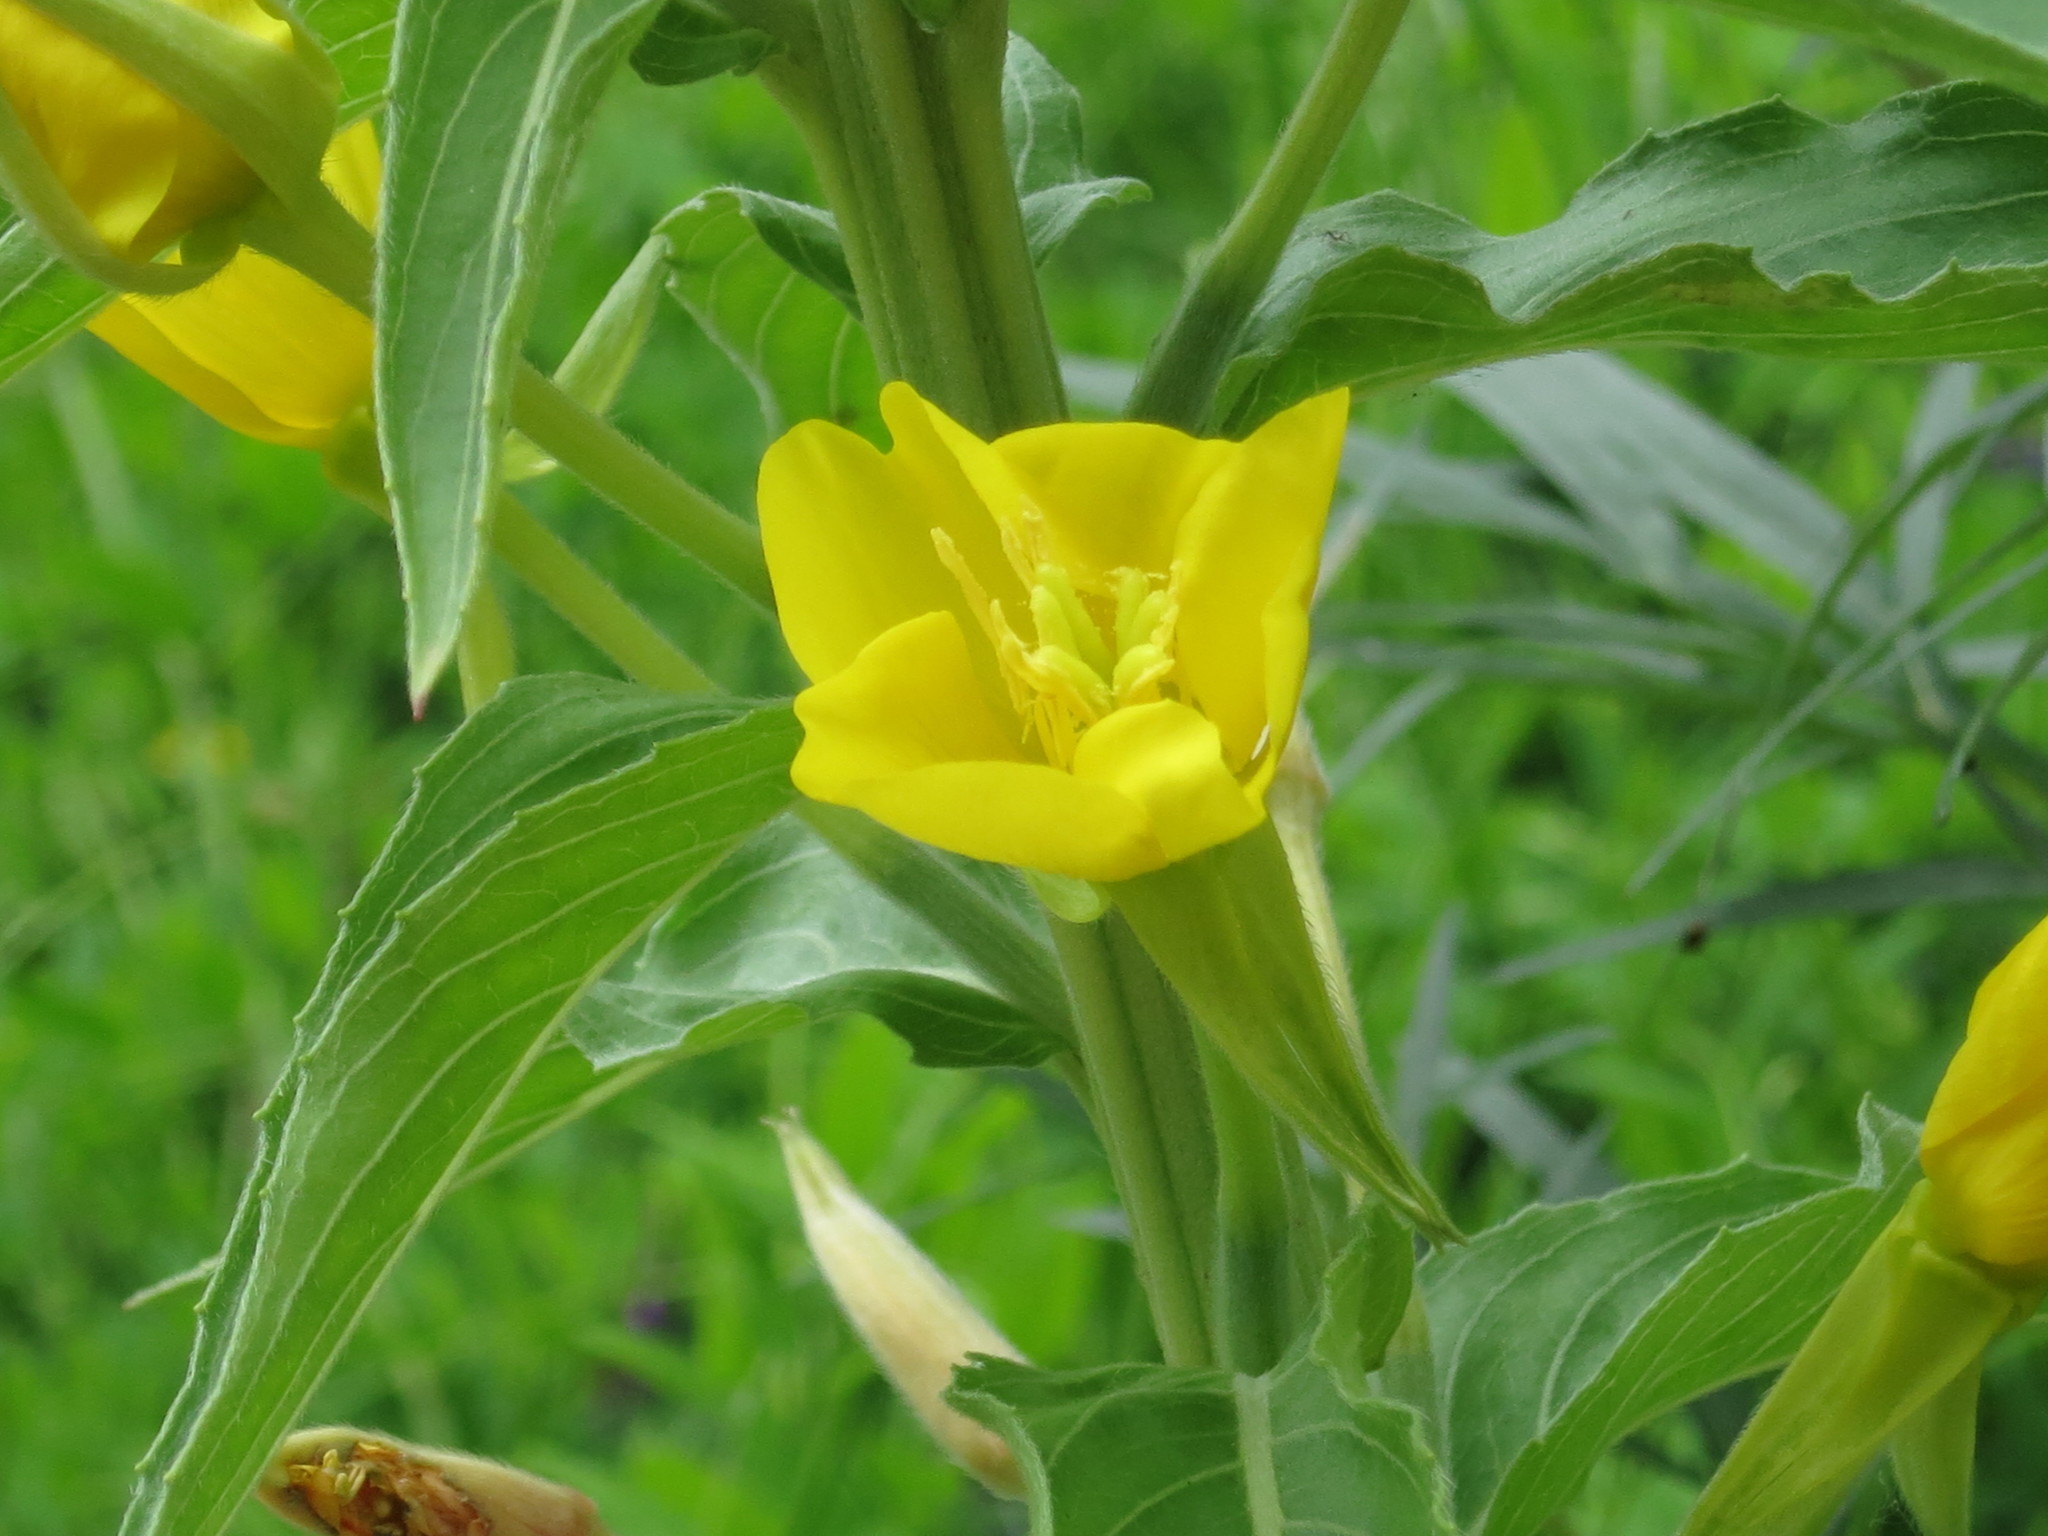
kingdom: Plantae
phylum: Tracheophyta
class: Magnoliopsida
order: Myrtales
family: Onagraceae
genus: Oenothera
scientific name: Oenothera villosa
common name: Hairy evening-primrose
